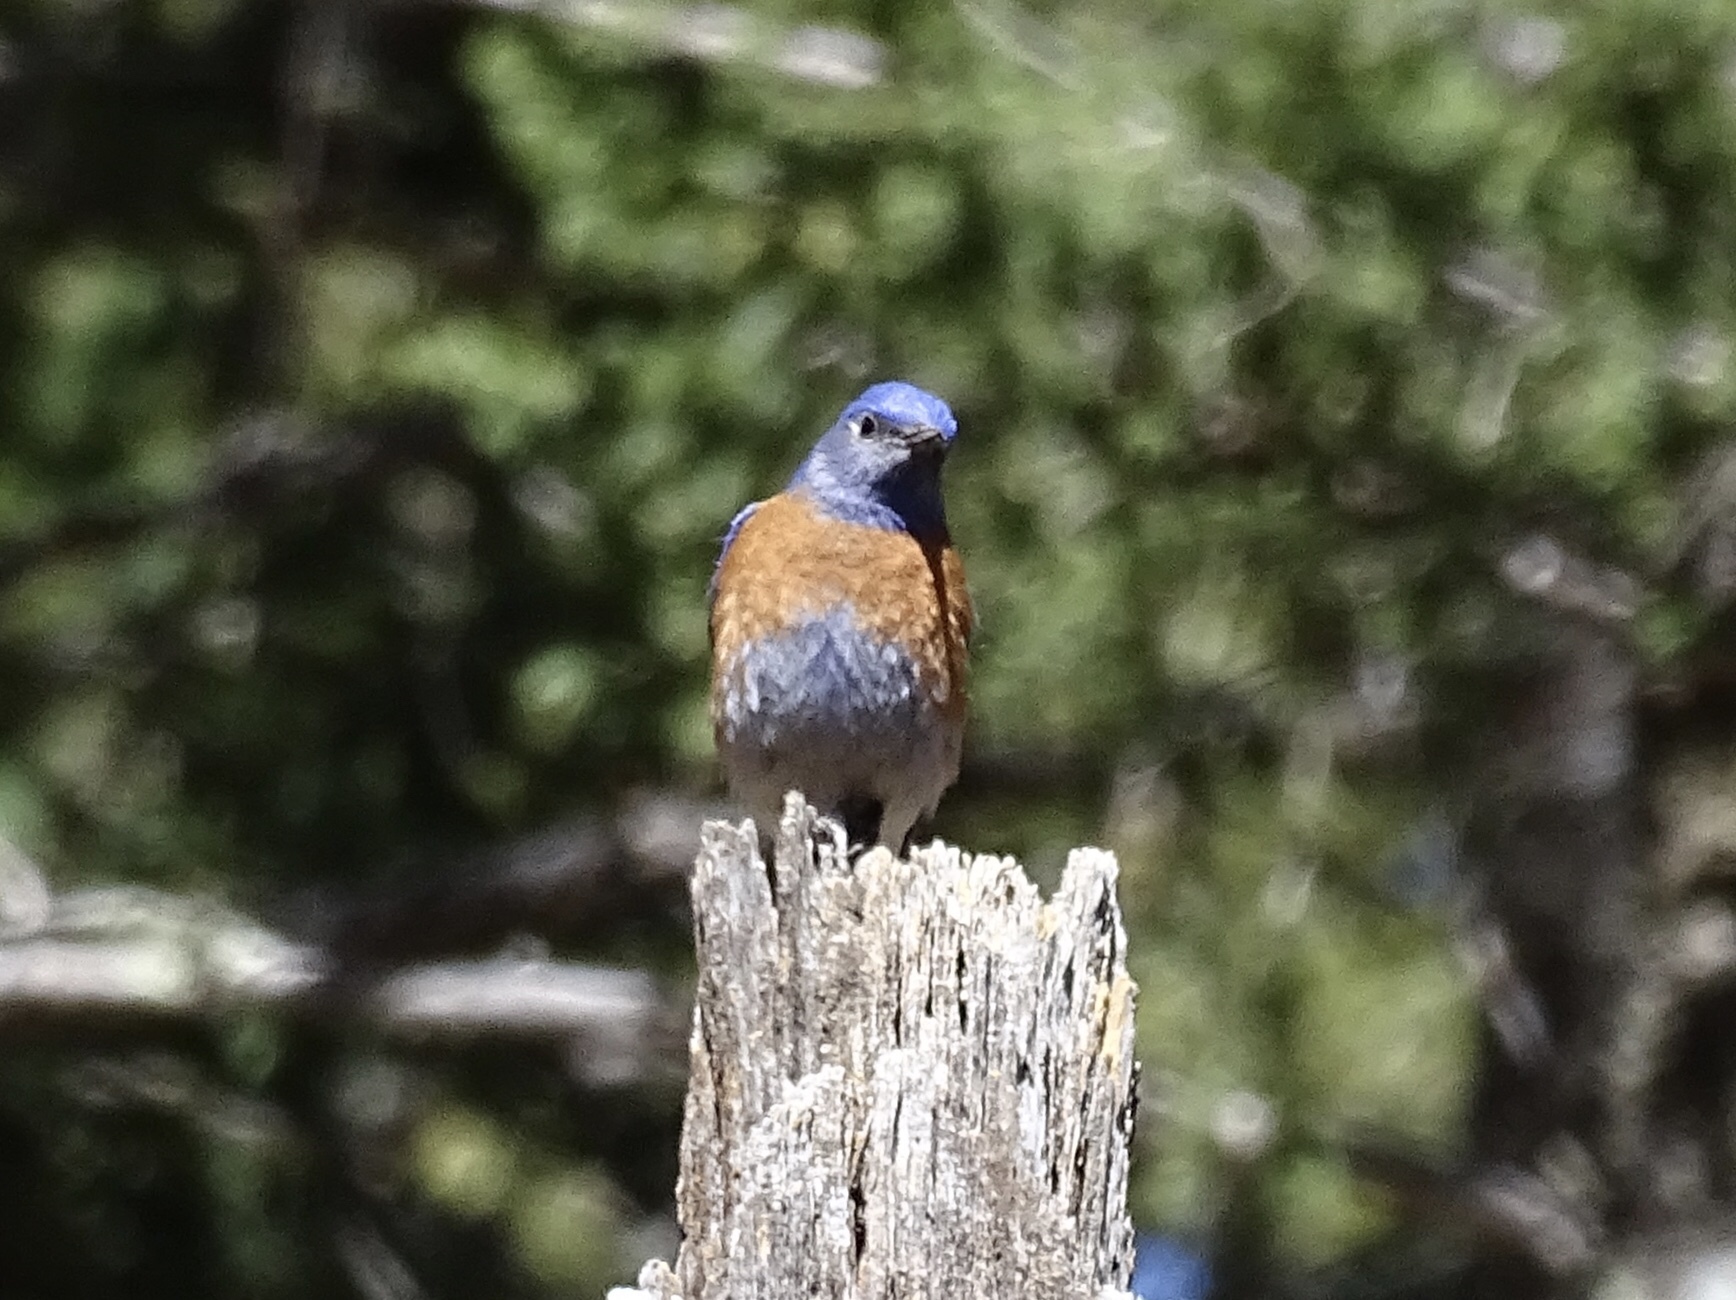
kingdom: Animalia
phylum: Chordata
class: Aves
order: Passeriformes
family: Turdidae
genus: Sialia
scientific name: Sialia mexicana
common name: Western bluebird
